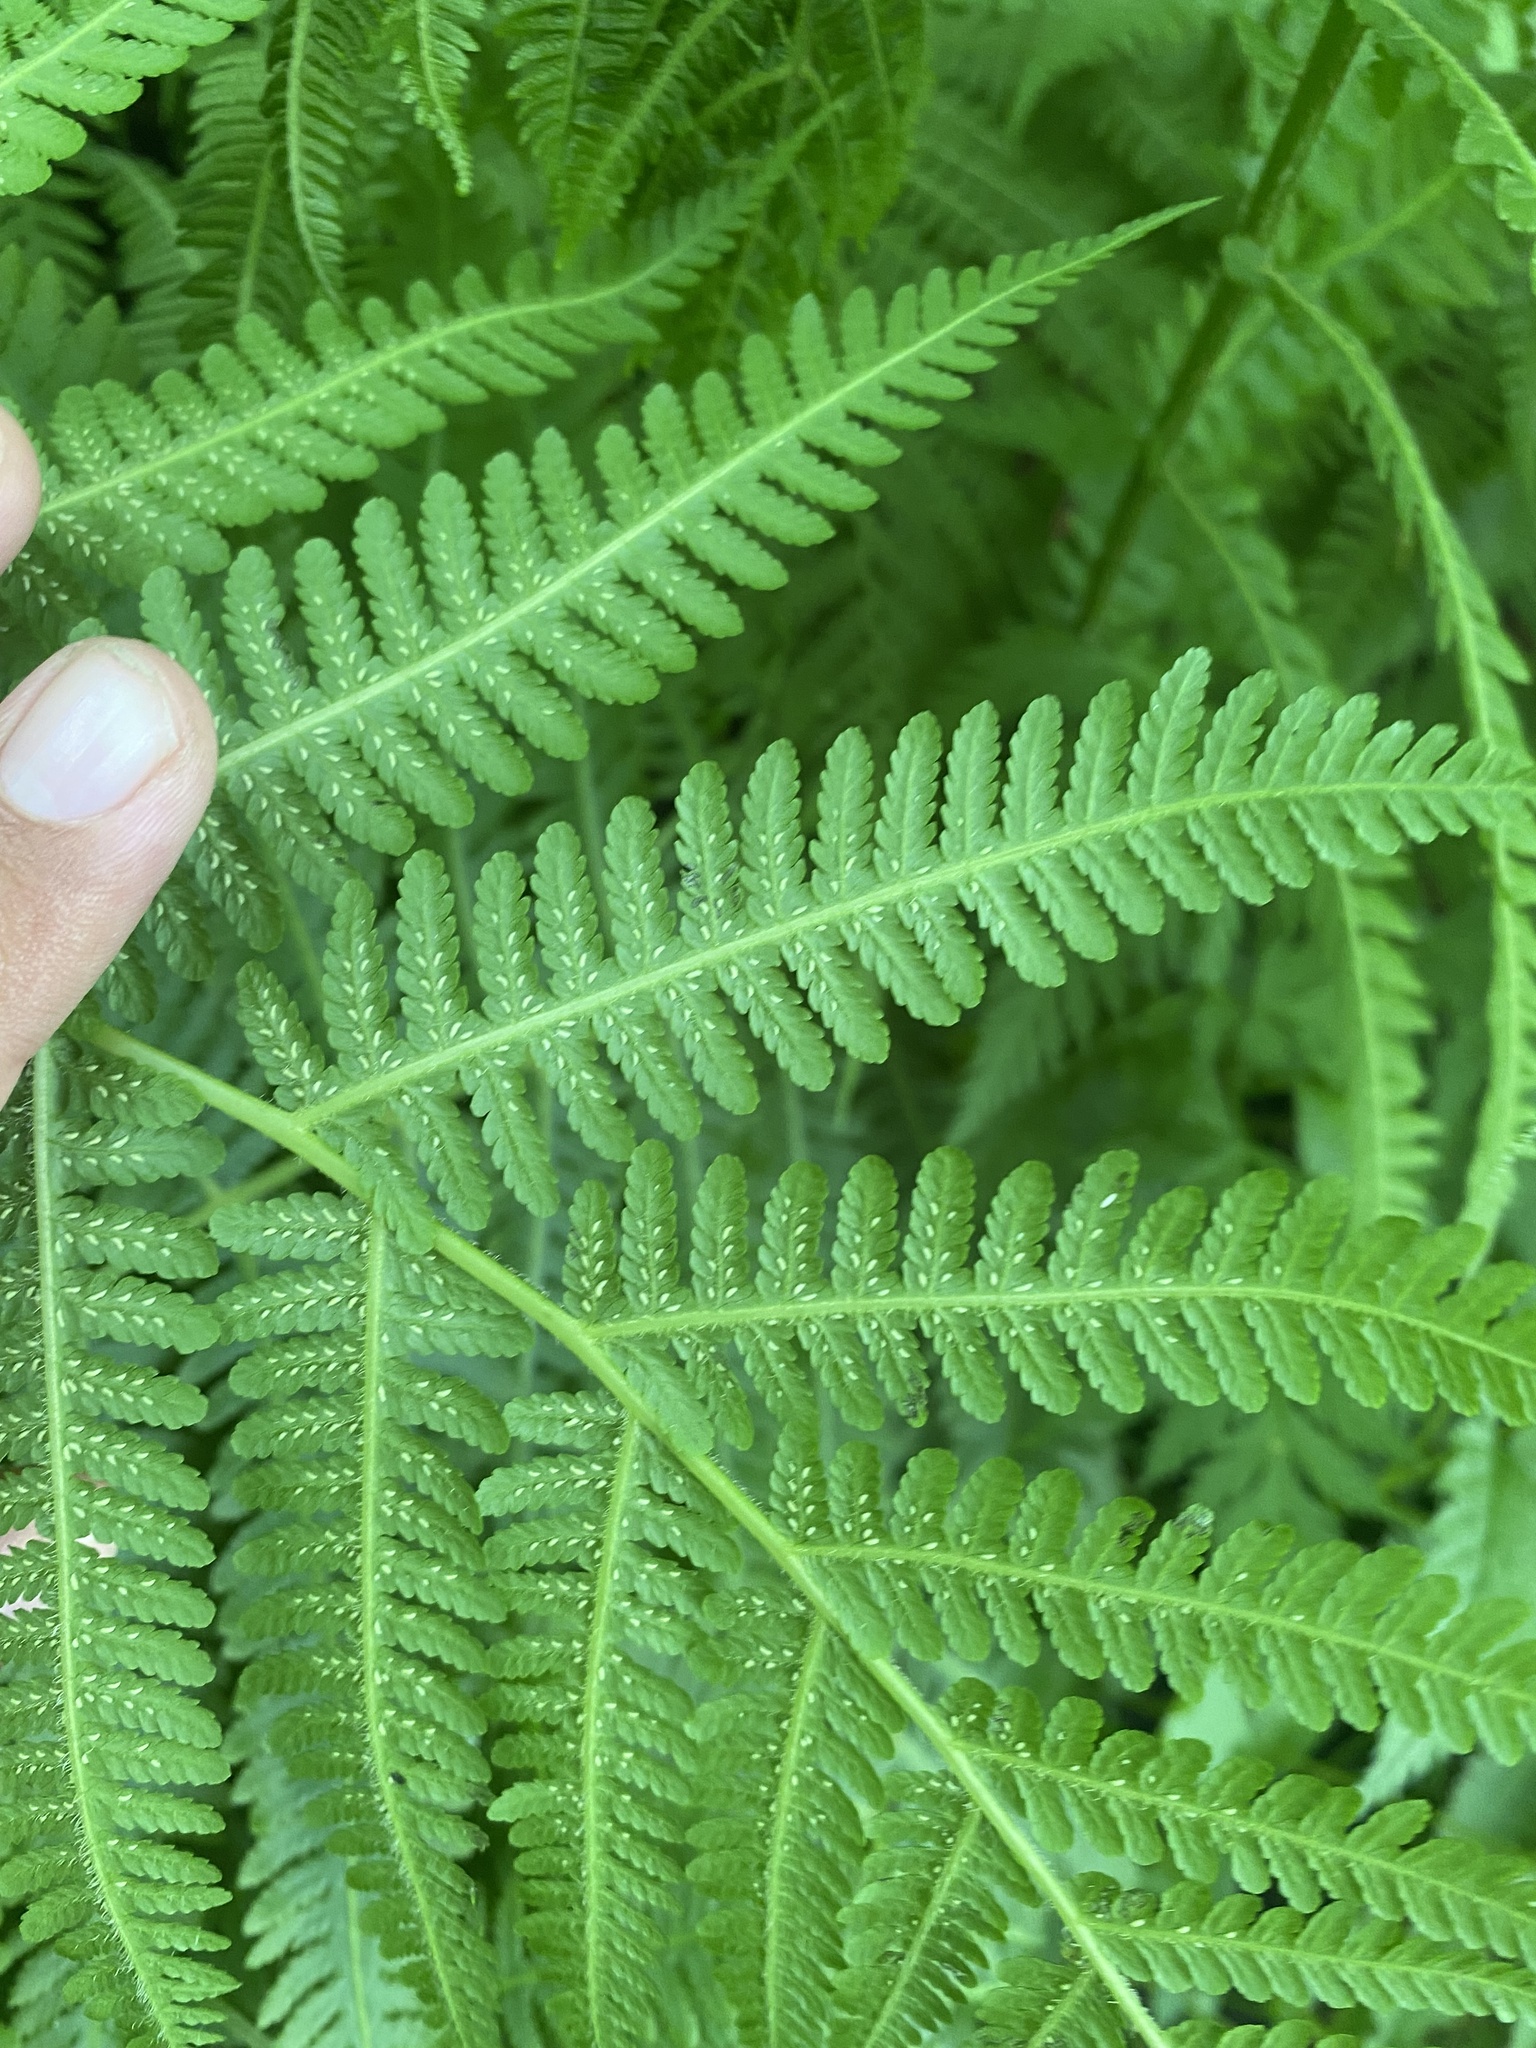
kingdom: Plantae
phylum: Tracheophyta
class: Polypodiopsida
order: Polypodiales
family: Athyriaceae
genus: Deparia
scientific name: Deparia pterorachis
